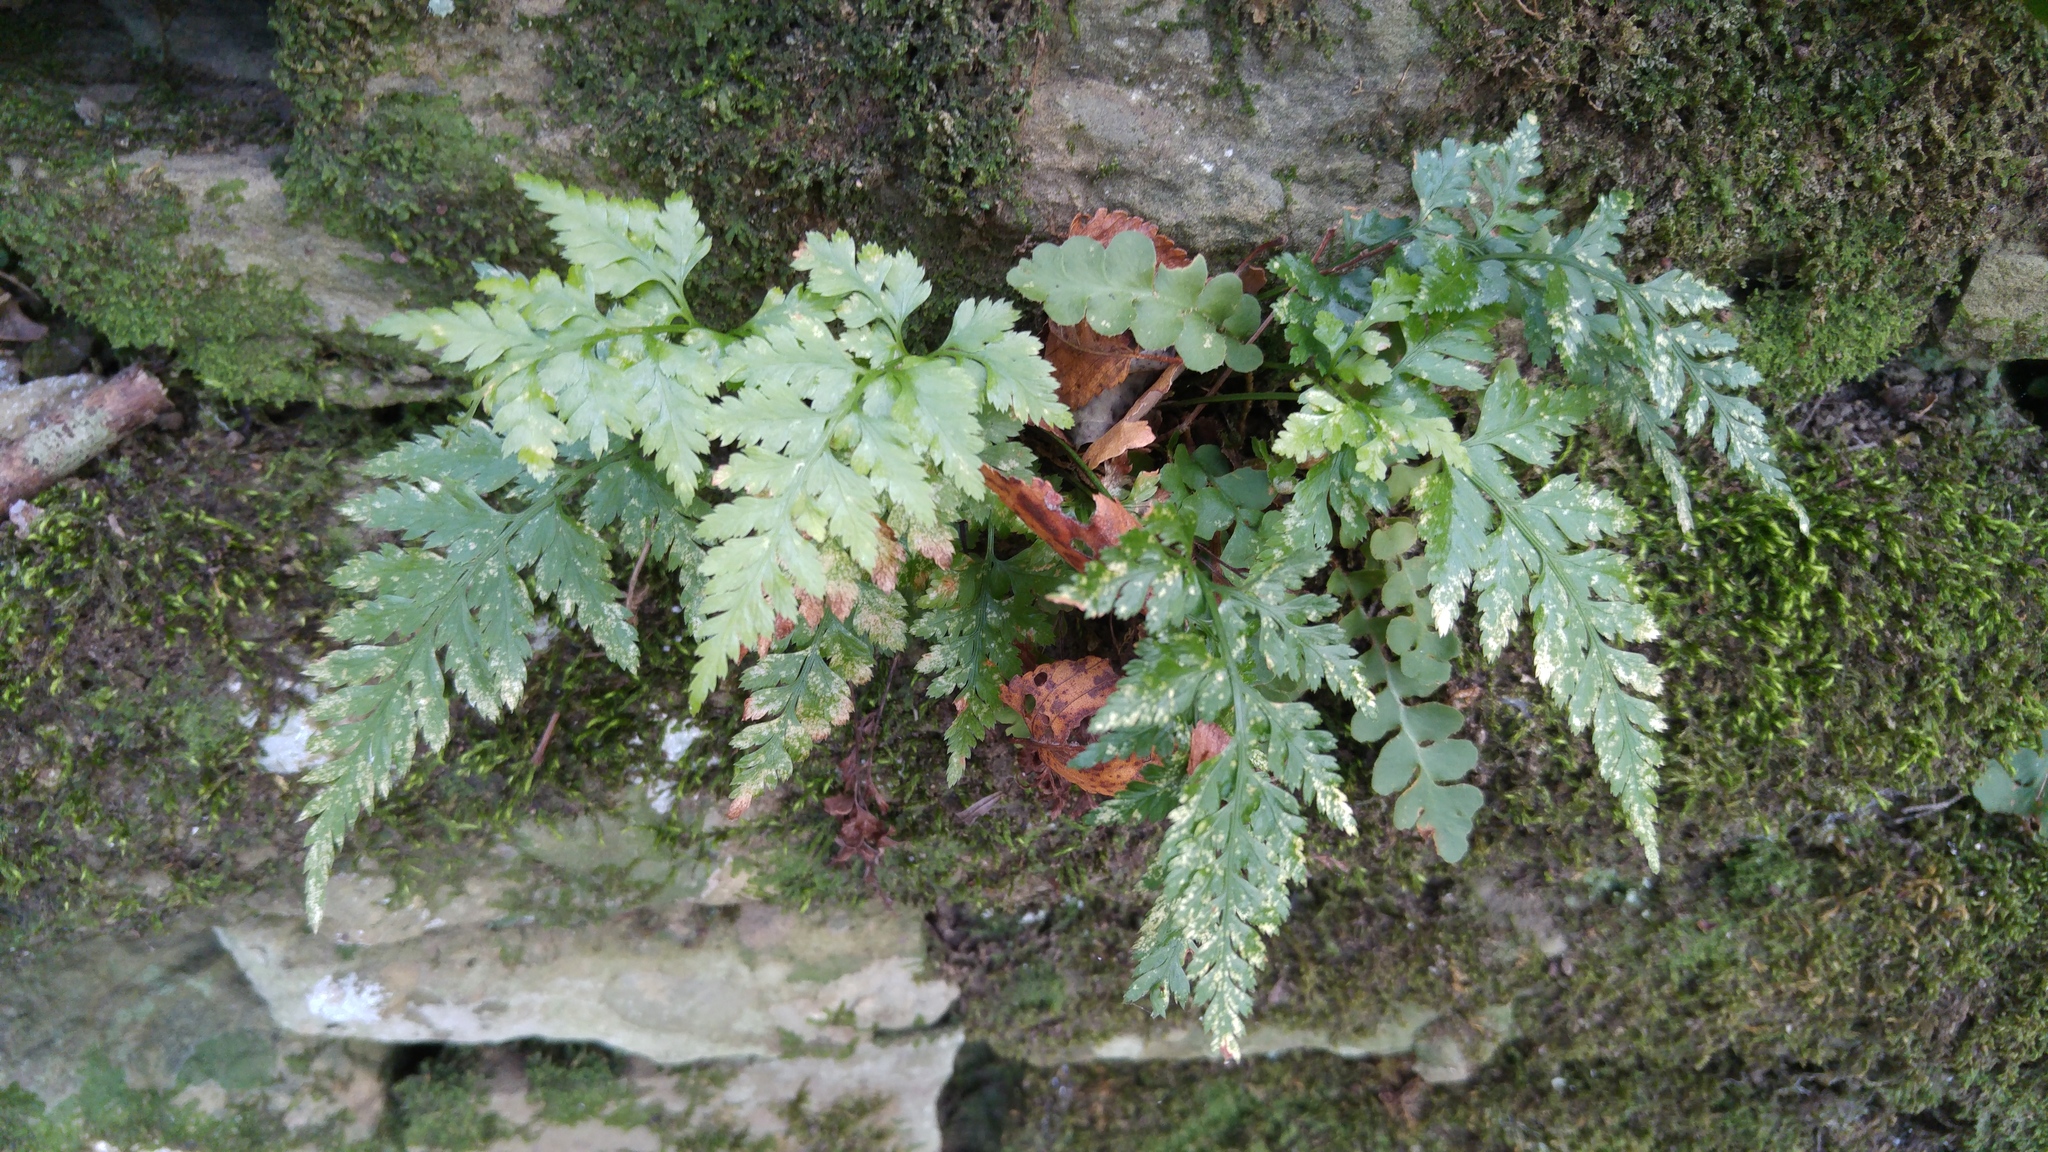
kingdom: Plantae
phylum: Tracheophyta
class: Polypodiopsida
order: Polypodiales
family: Aspleniaceae
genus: Asplenium
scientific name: Asplenium onopteris
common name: Irish spleenwort
